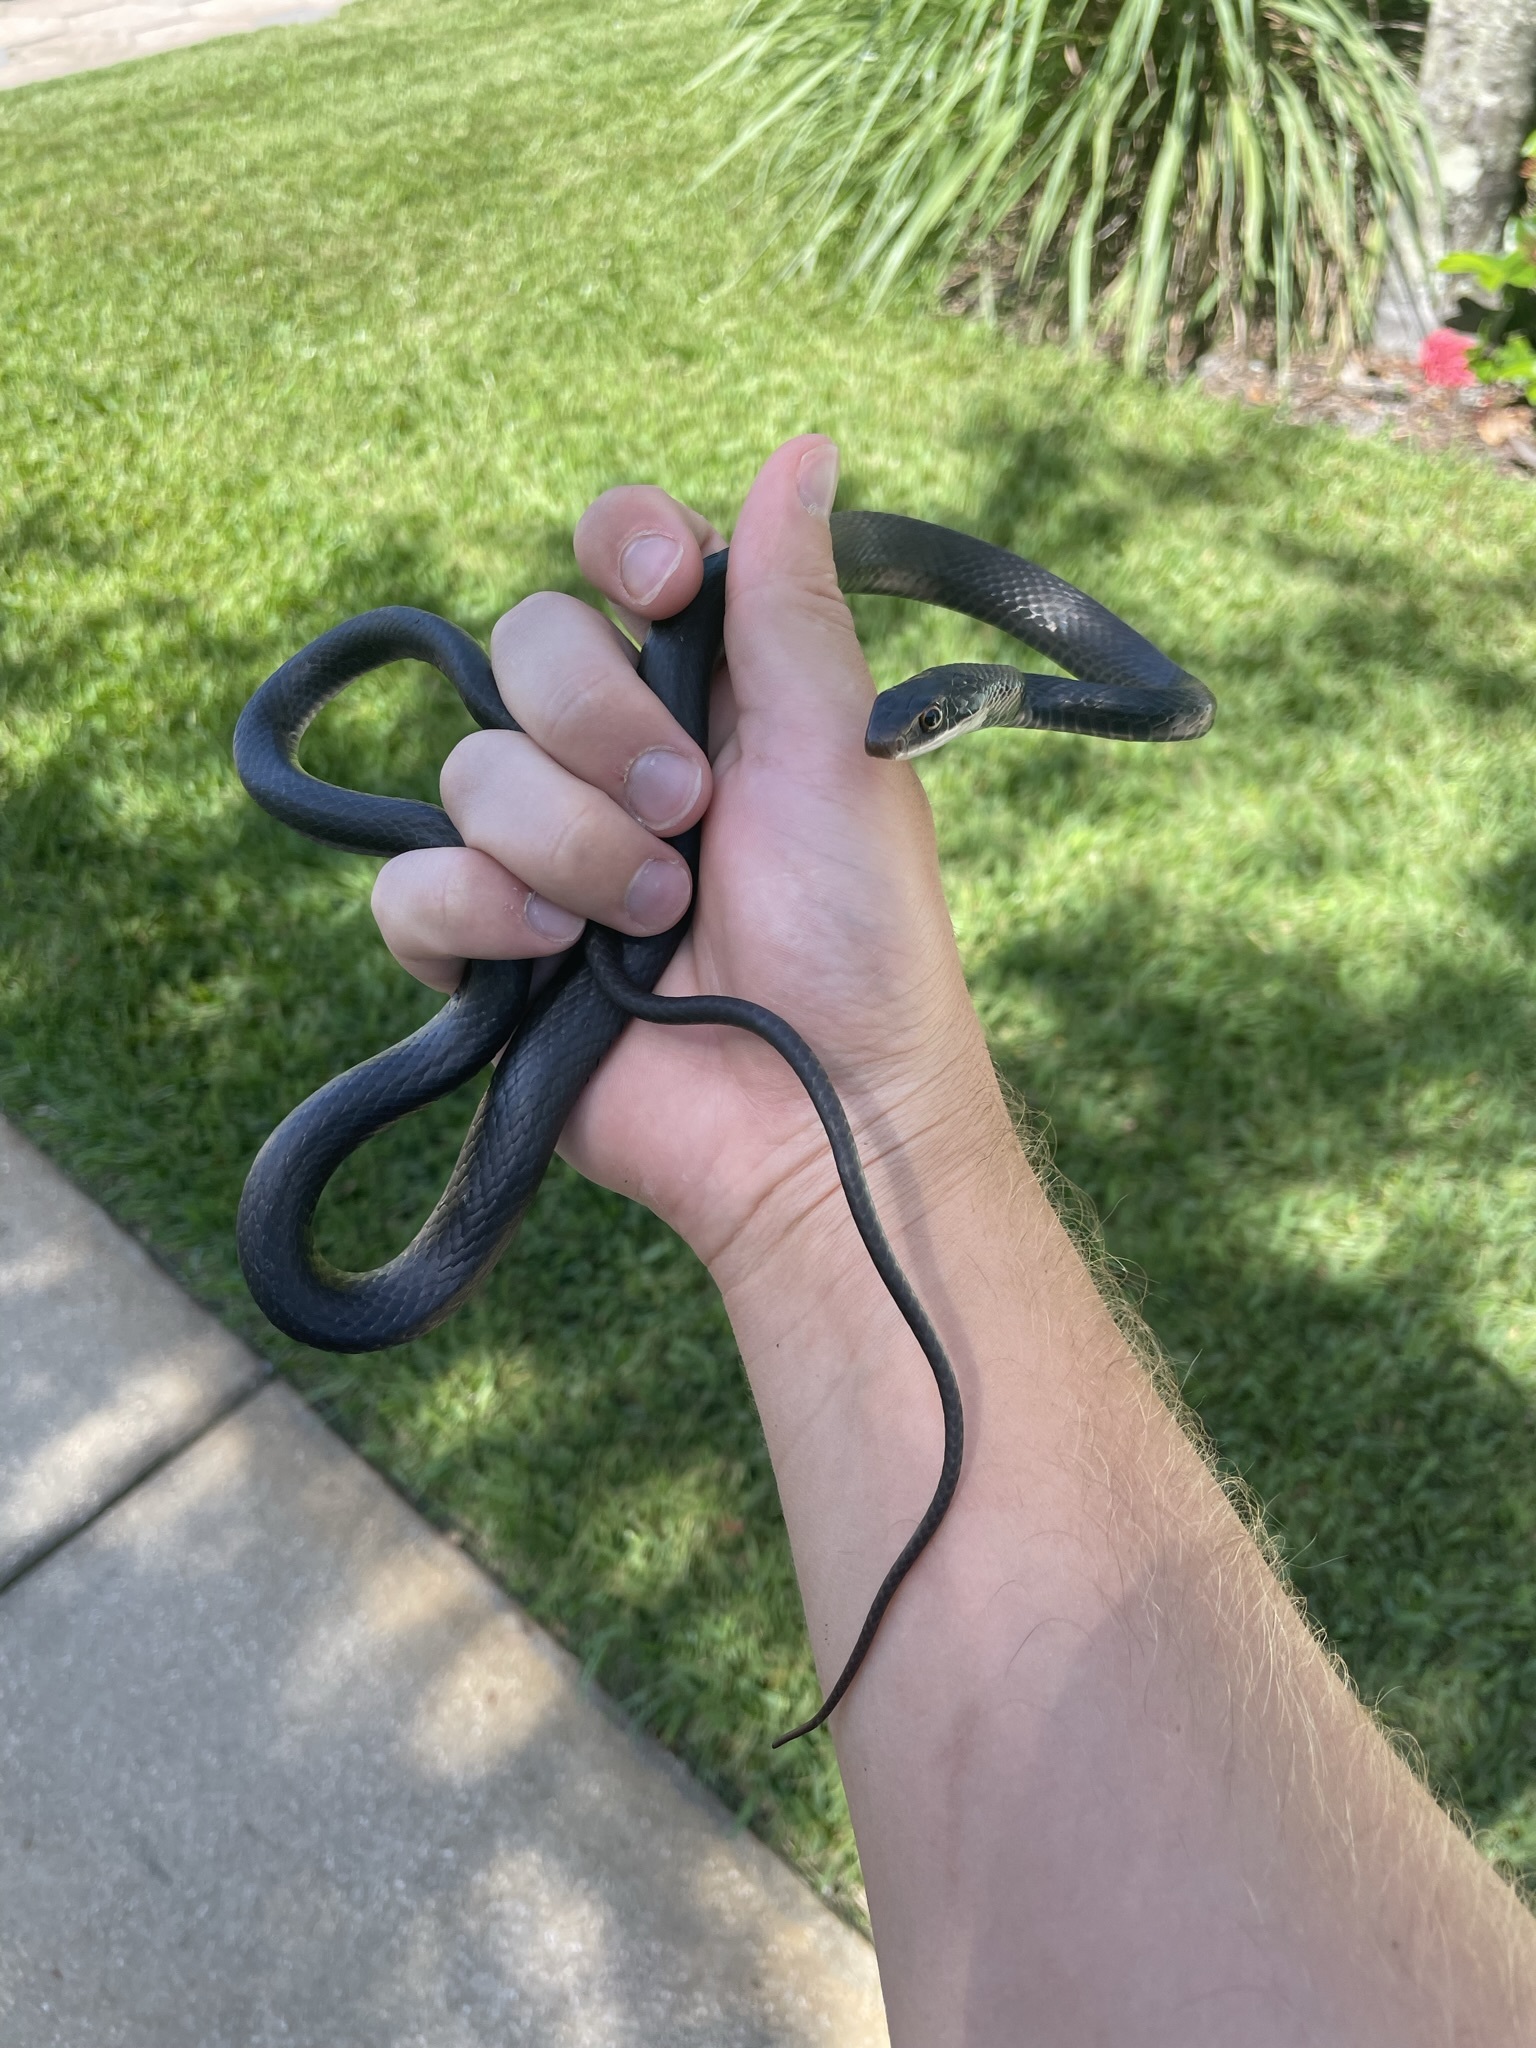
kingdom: Animalia
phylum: Chordata
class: Squamata
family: Colubridae
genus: Coluber
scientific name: Coluber constrictor
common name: Eastern racer
